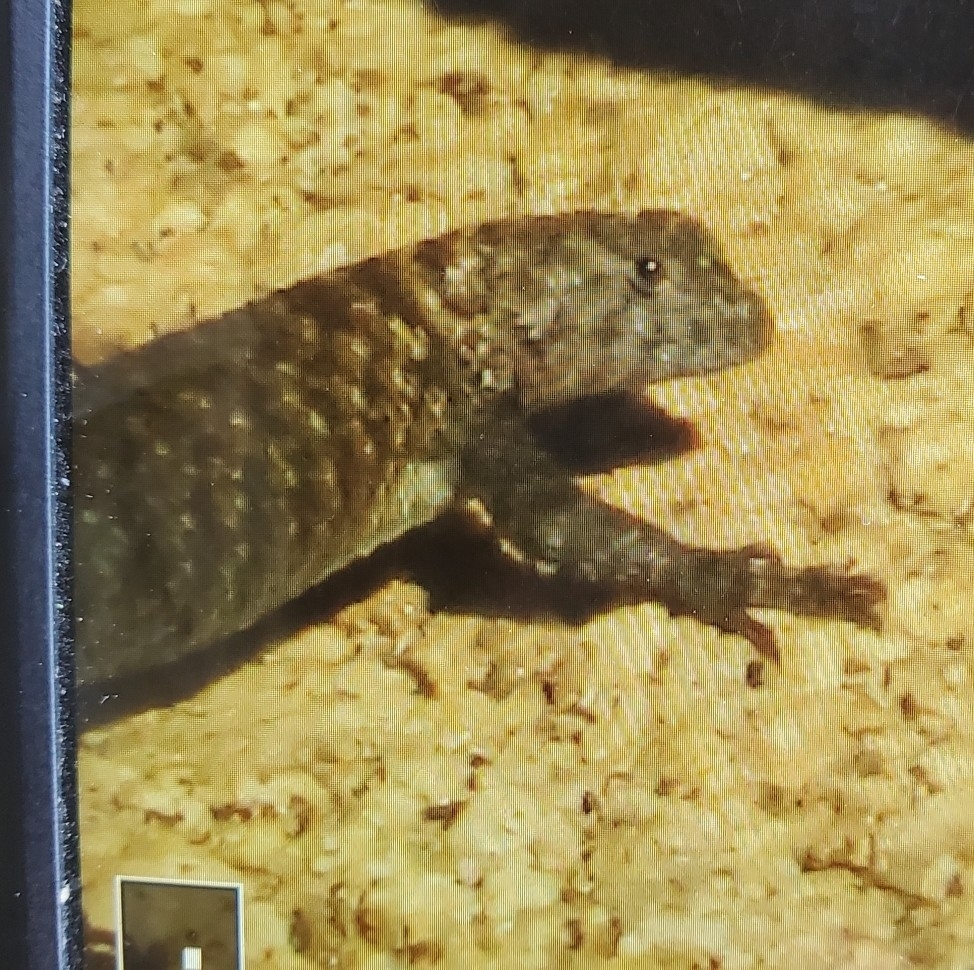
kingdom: Animalia
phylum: Chordata
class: Squamata
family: Phrynosomatidae
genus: Sceloporus
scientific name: Sceloporus orcutti
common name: Granite spiny lizard
